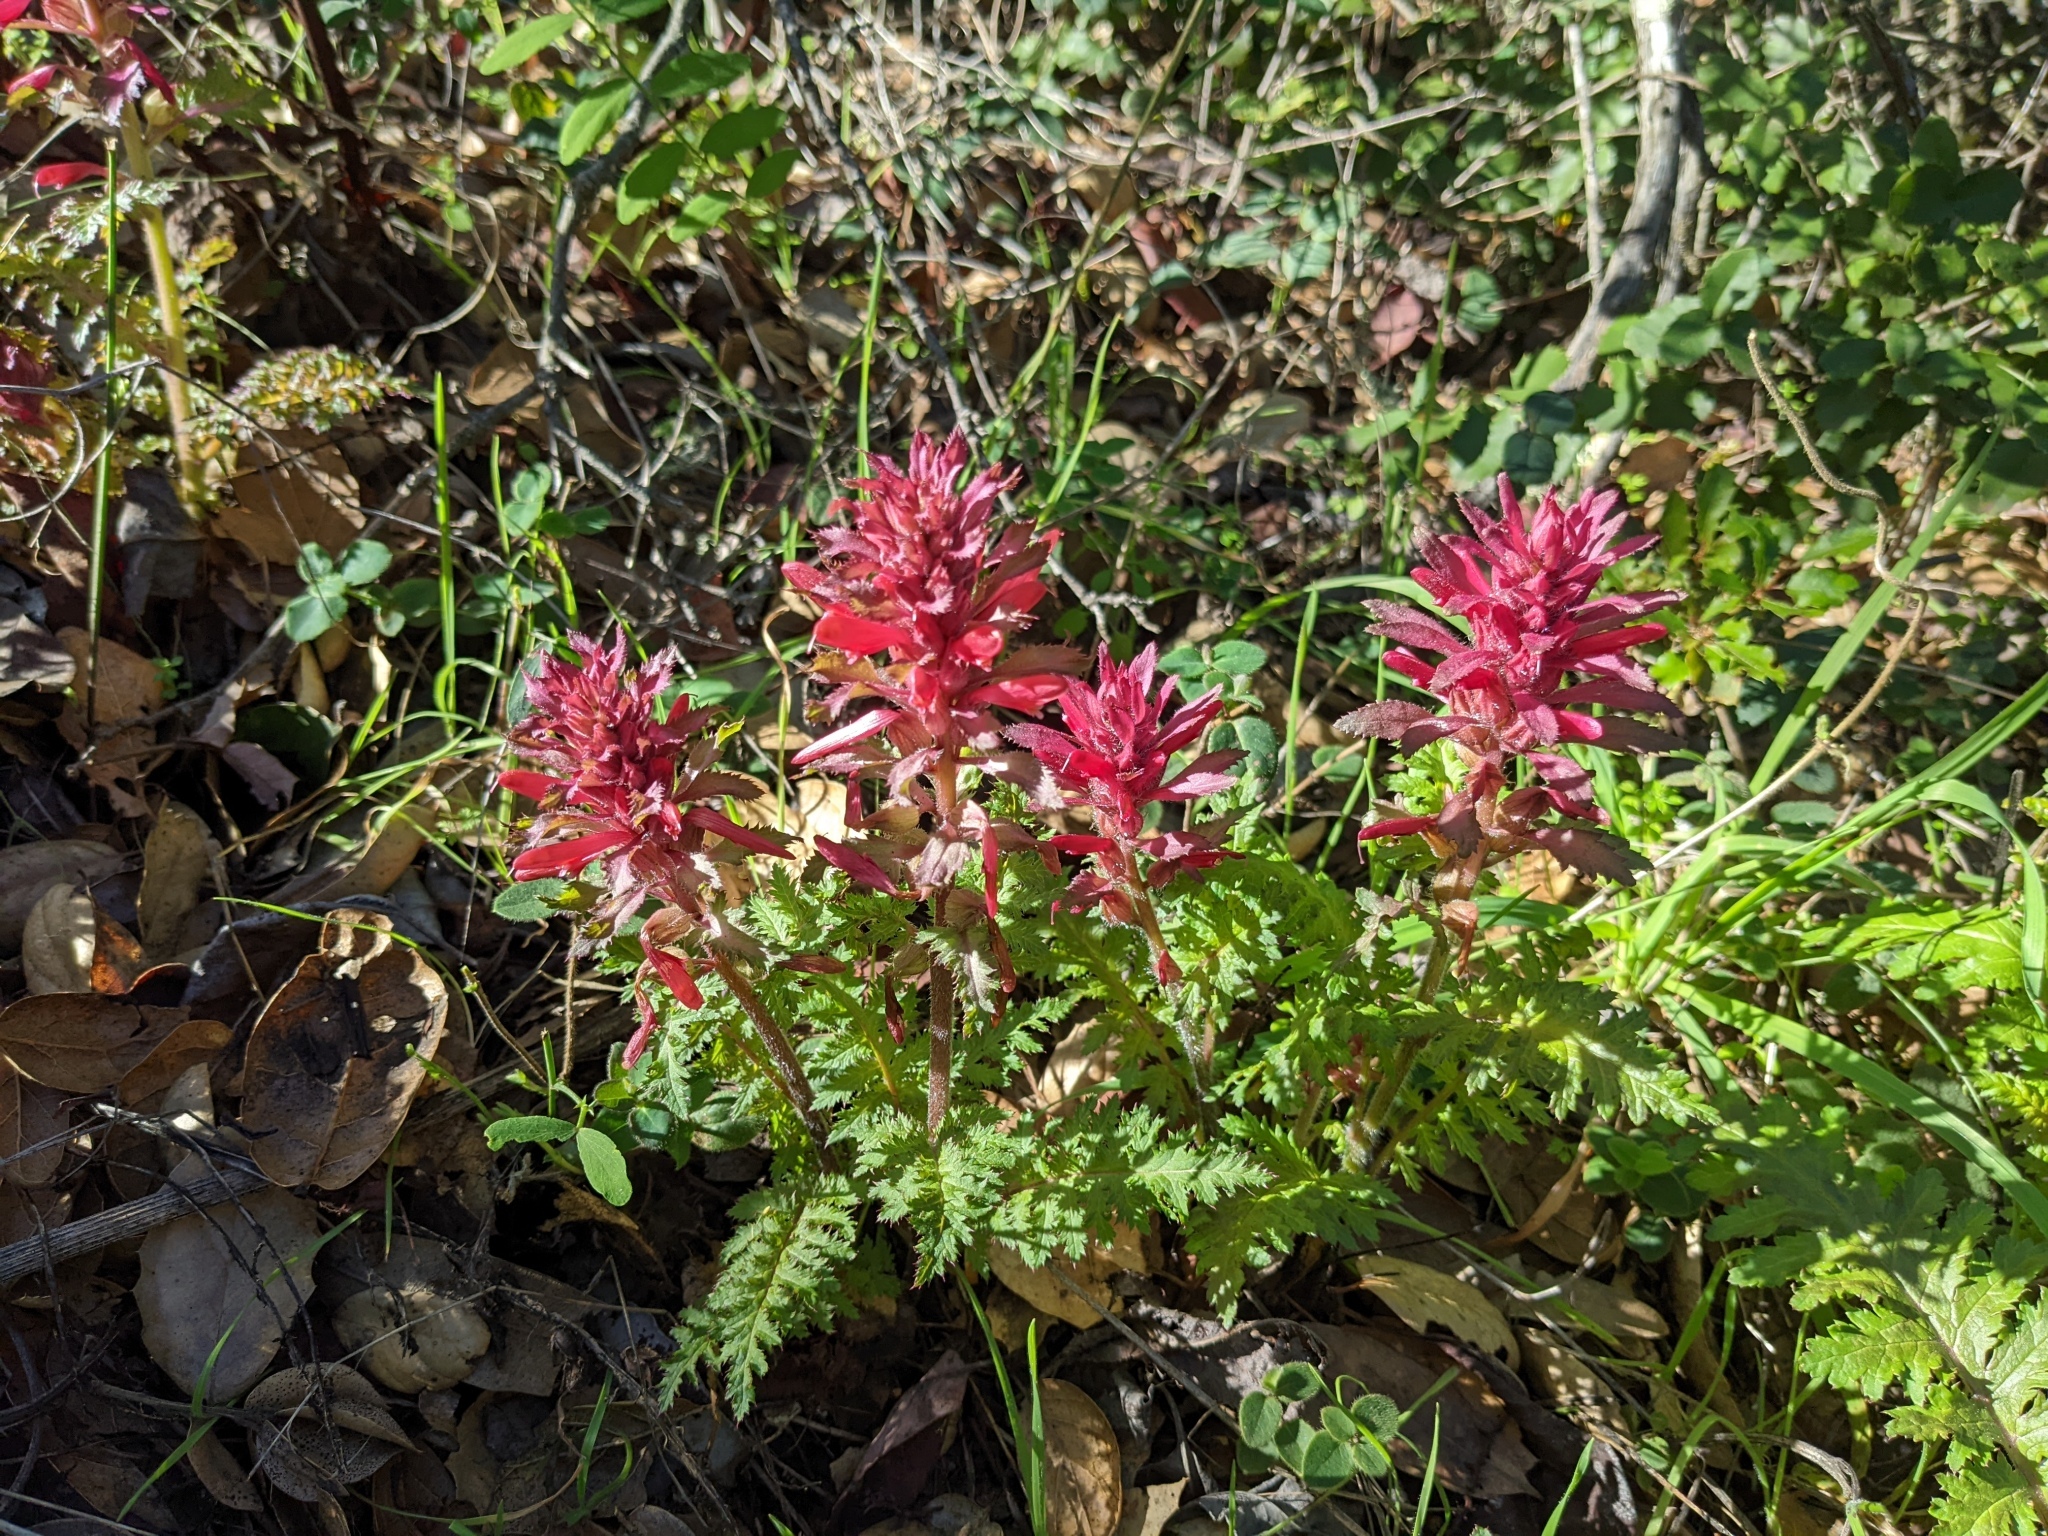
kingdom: Plantae
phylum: Tracheophyta
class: Magnoliopsida
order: Lamiales
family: Orobanchaceae
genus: Pedicularis
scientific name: Pedicularis densiflora
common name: Indian warrior
